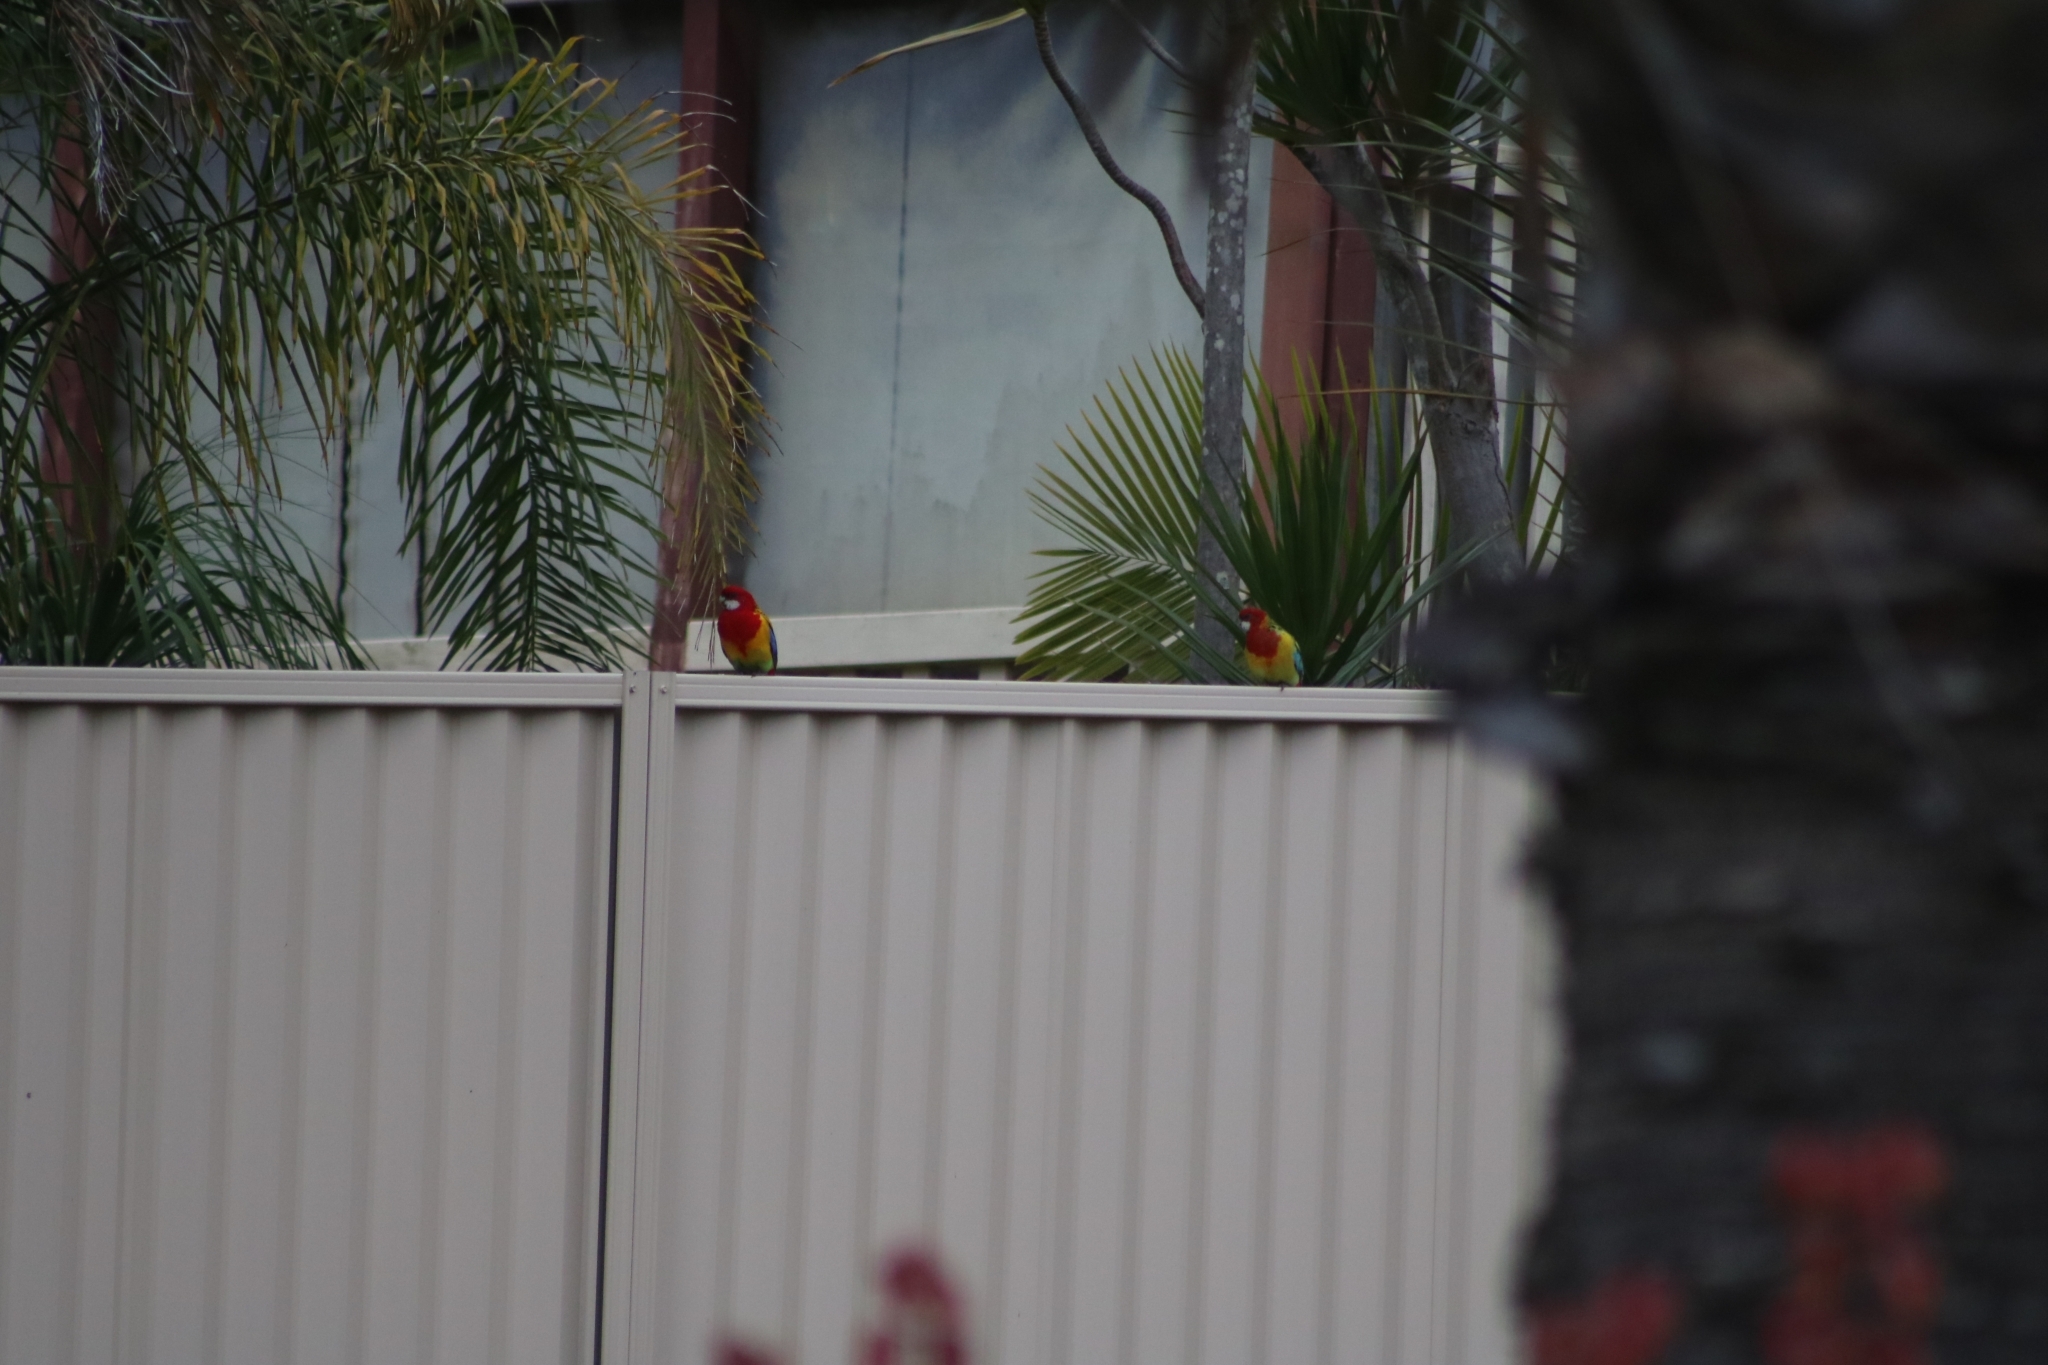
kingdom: Animalia
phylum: Chordata
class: Aves
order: Psittaciformes
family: Psittacidae
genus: Platycercus
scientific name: Platycercus eximius
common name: Eastern rosella
